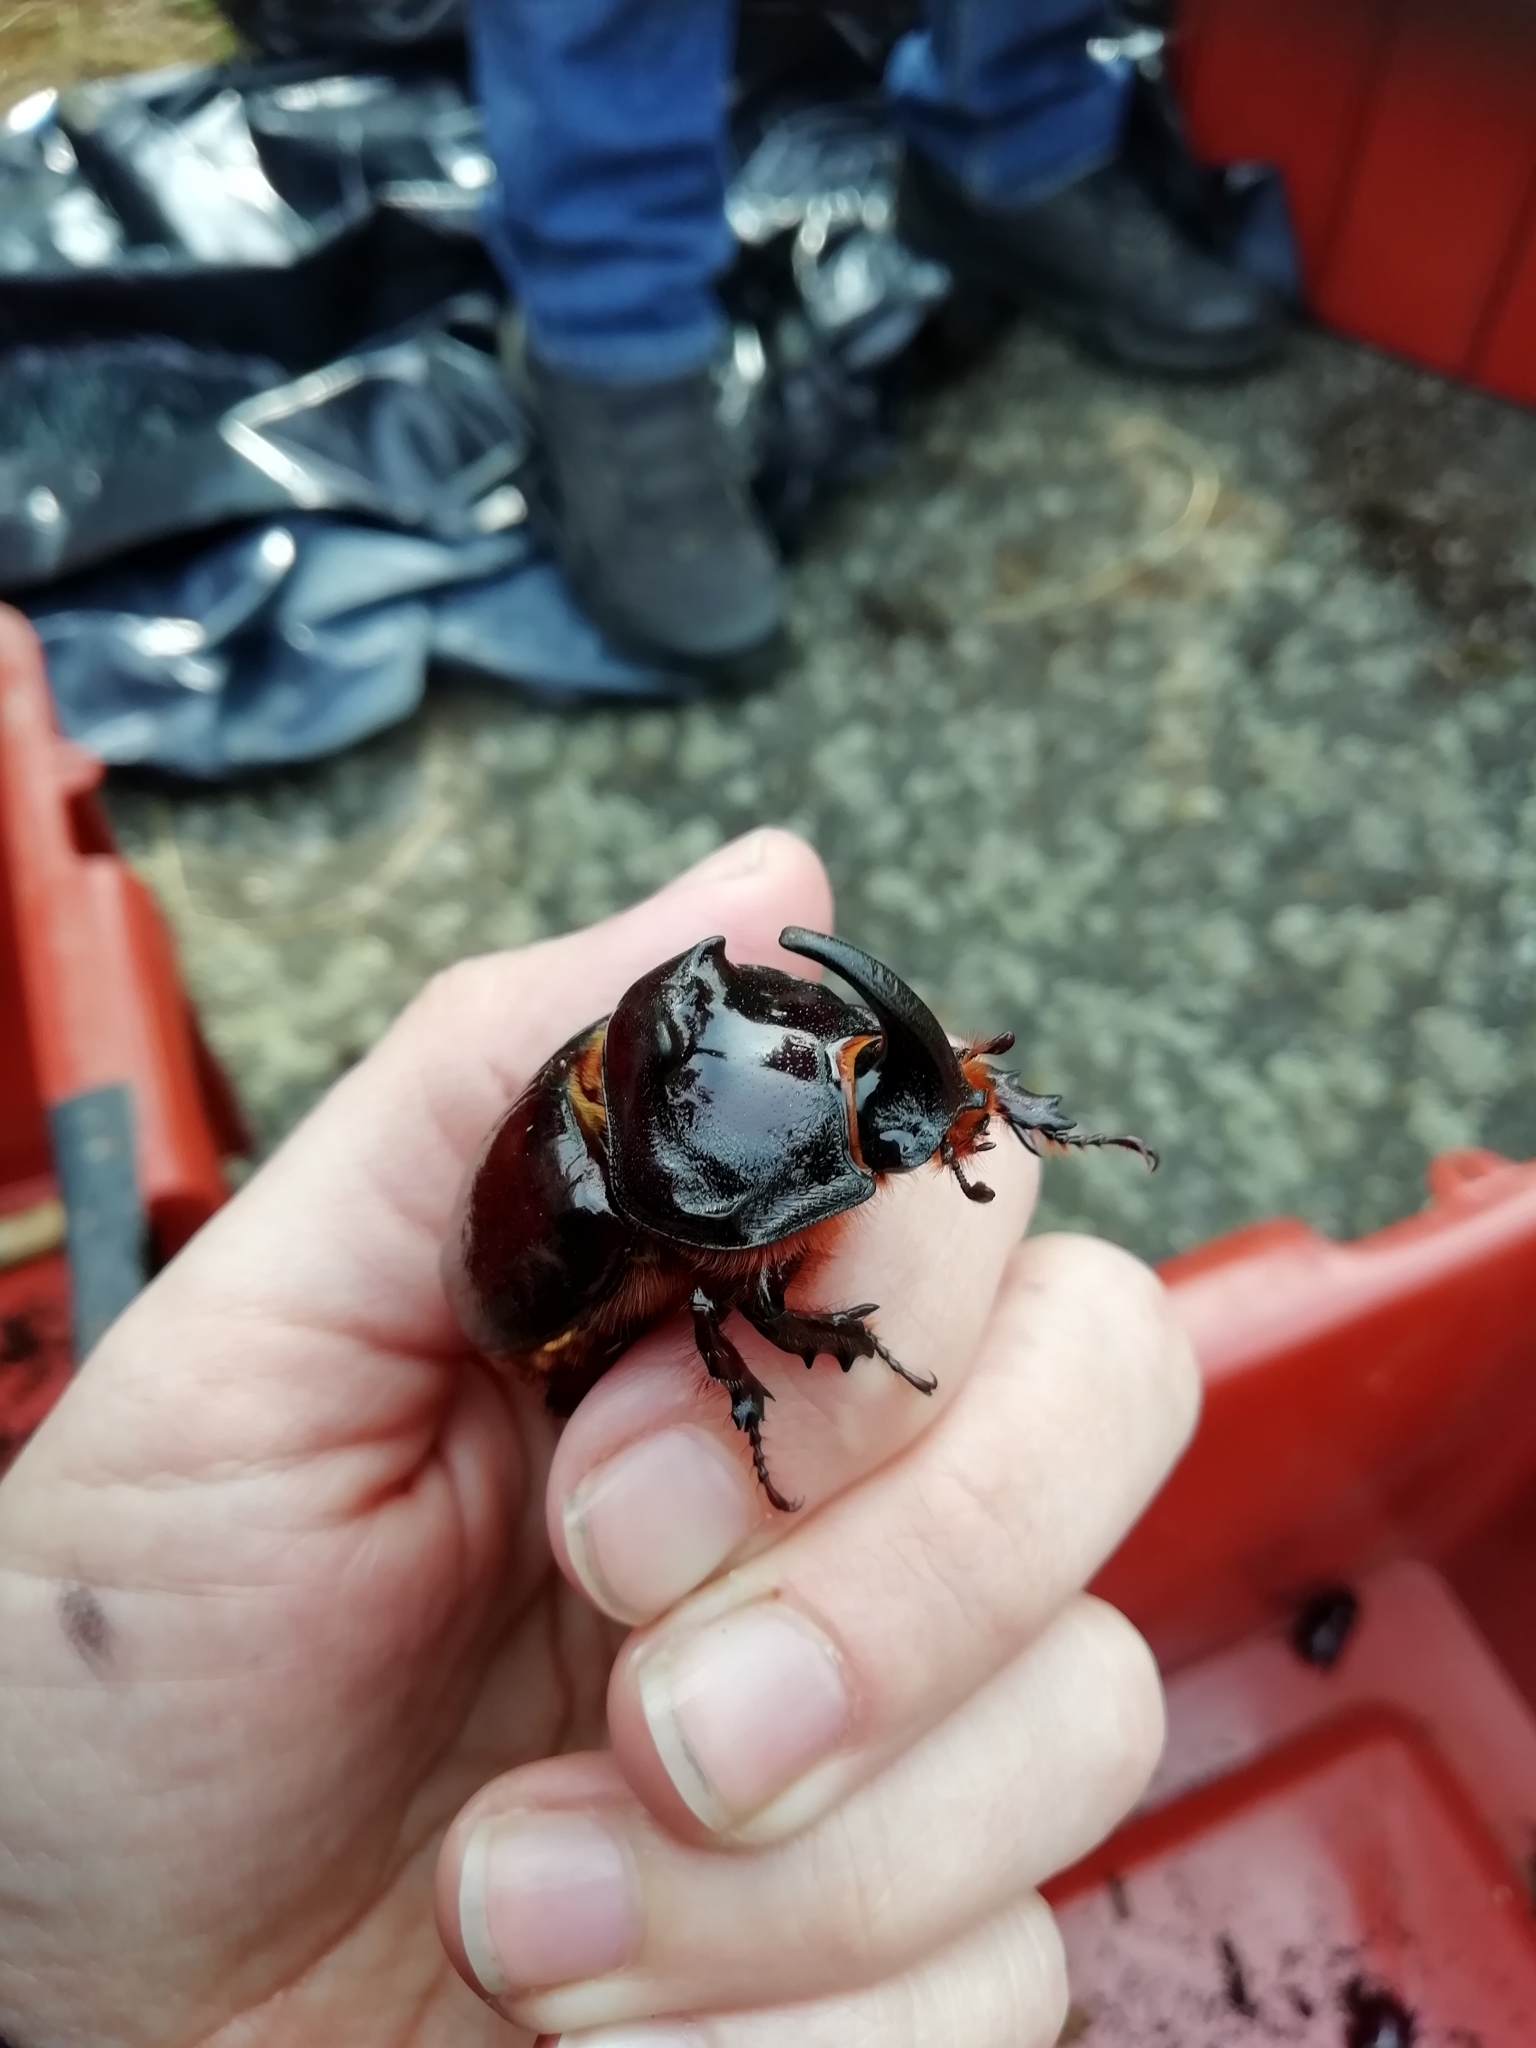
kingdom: Animalia
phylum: Arthropoda
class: Insecta
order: Coleoptera
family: Scarabaeidae
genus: Oryctes
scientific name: Oryctes nasicornis
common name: European rhinoceros beetle
